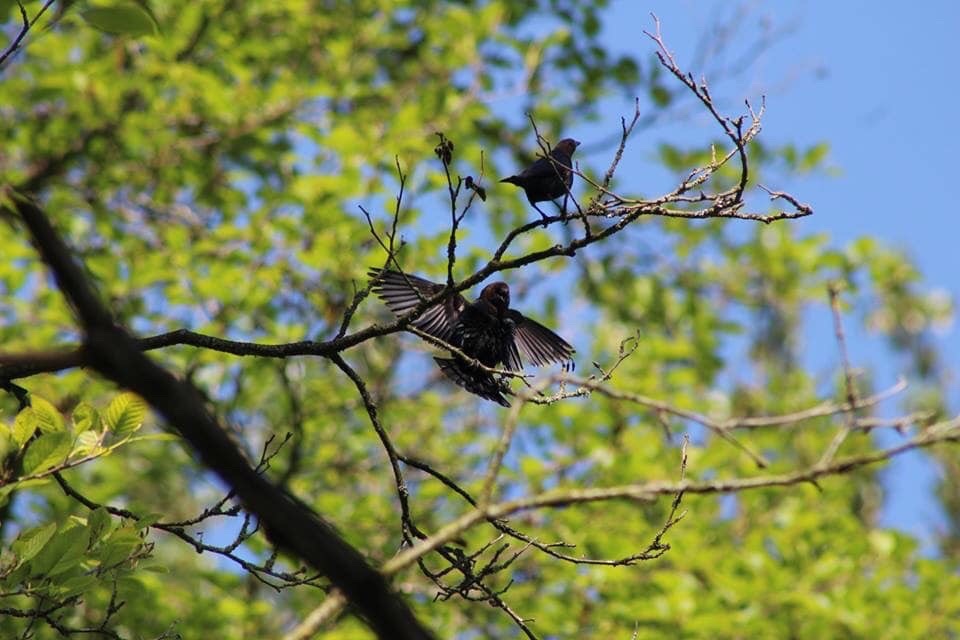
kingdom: Animalia
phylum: Chordata
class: Aves
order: Passeriformes
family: Icteridae
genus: Molothrus
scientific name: Molothrus ater
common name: Brown-headed cowbird
